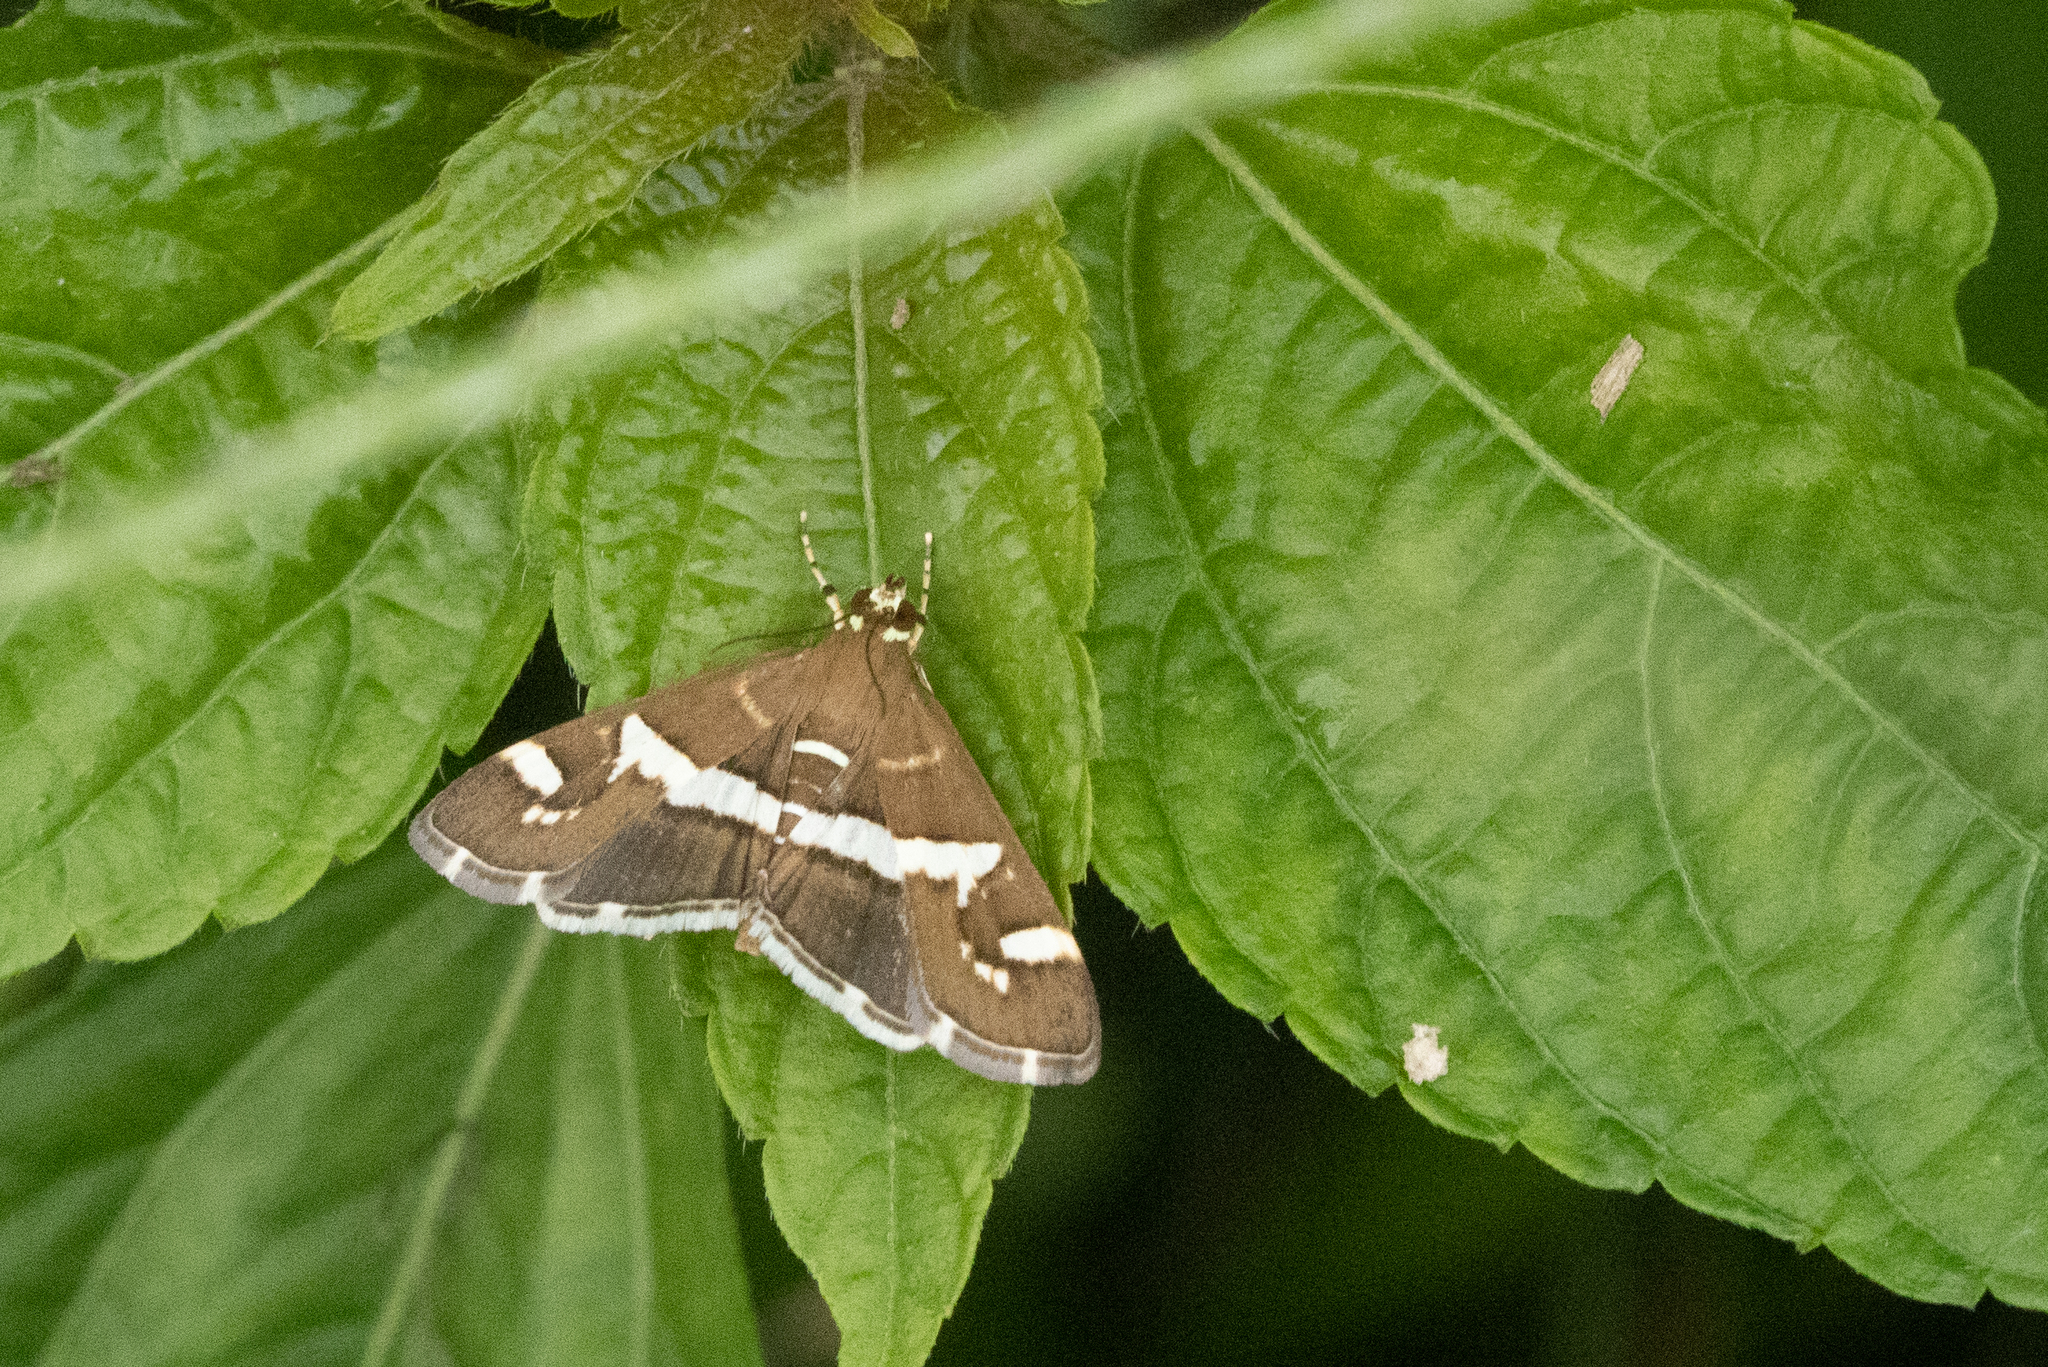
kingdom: Animalia
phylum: Arthropoda
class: Insecta
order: Lepidoptera
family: Crambidae
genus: Spoladea
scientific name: Spoladea recurvalis
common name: Beet webworm moth
